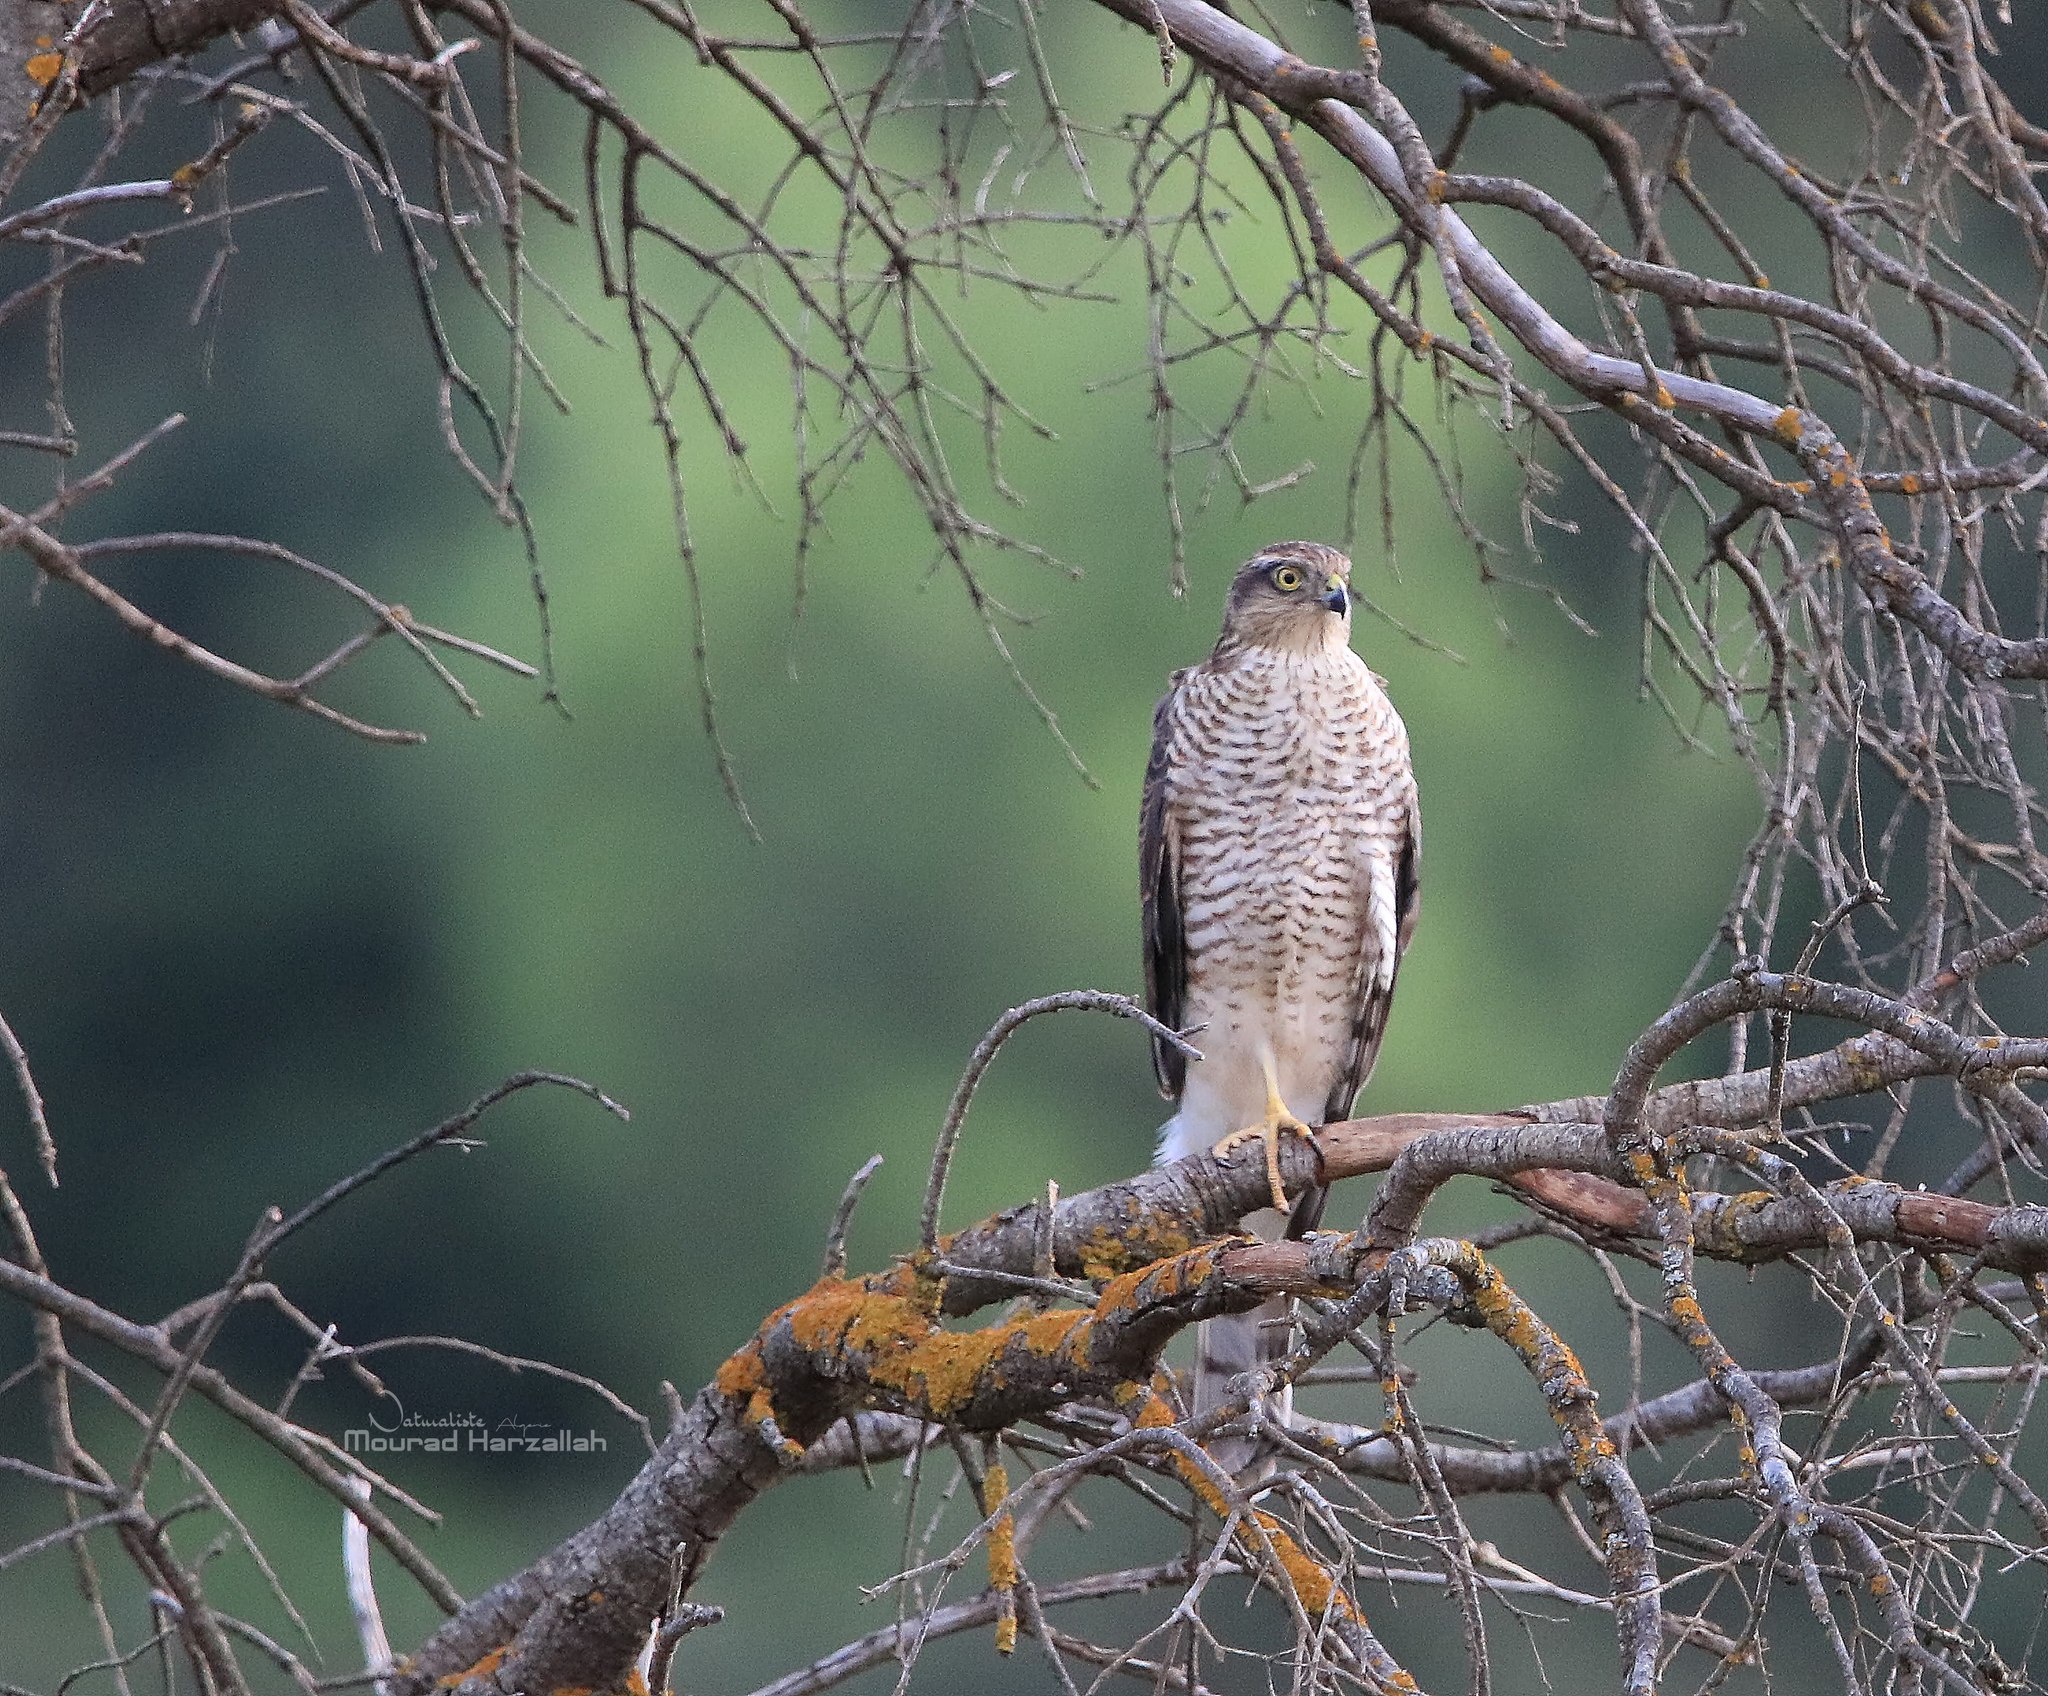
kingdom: Animalia
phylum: Chordata
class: Aves
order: Accipitriformes
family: Accipitridae
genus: Accipiter
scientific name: Accipiter nisus
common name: Eurasian sparrowhawk
